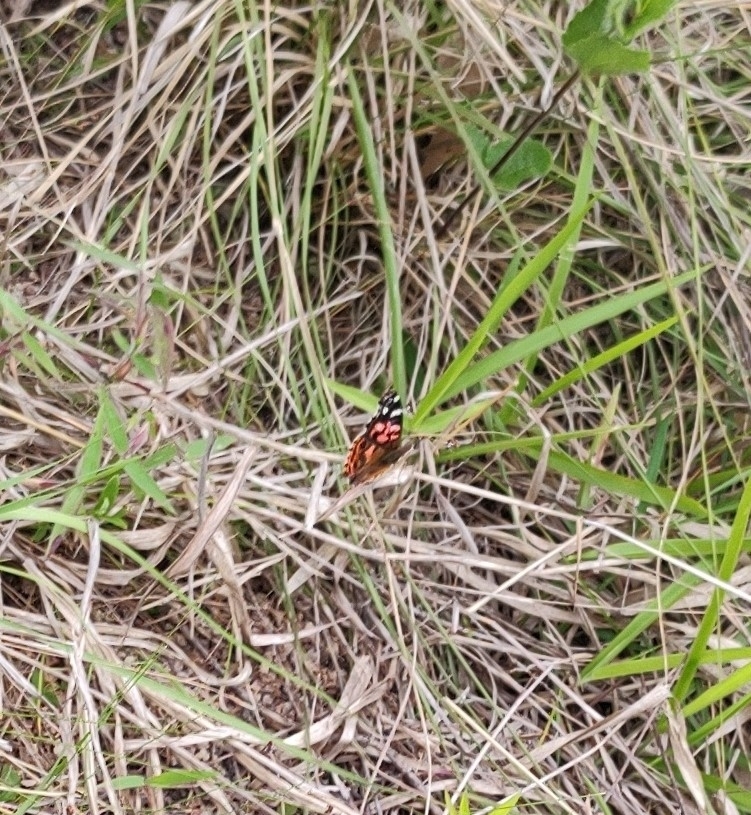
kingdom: Animalia
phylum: Arthropoda
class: Insecta
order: Lepidoptera
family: Nymphalidae
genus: Vanessa
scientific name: Vanessa braziliensis
